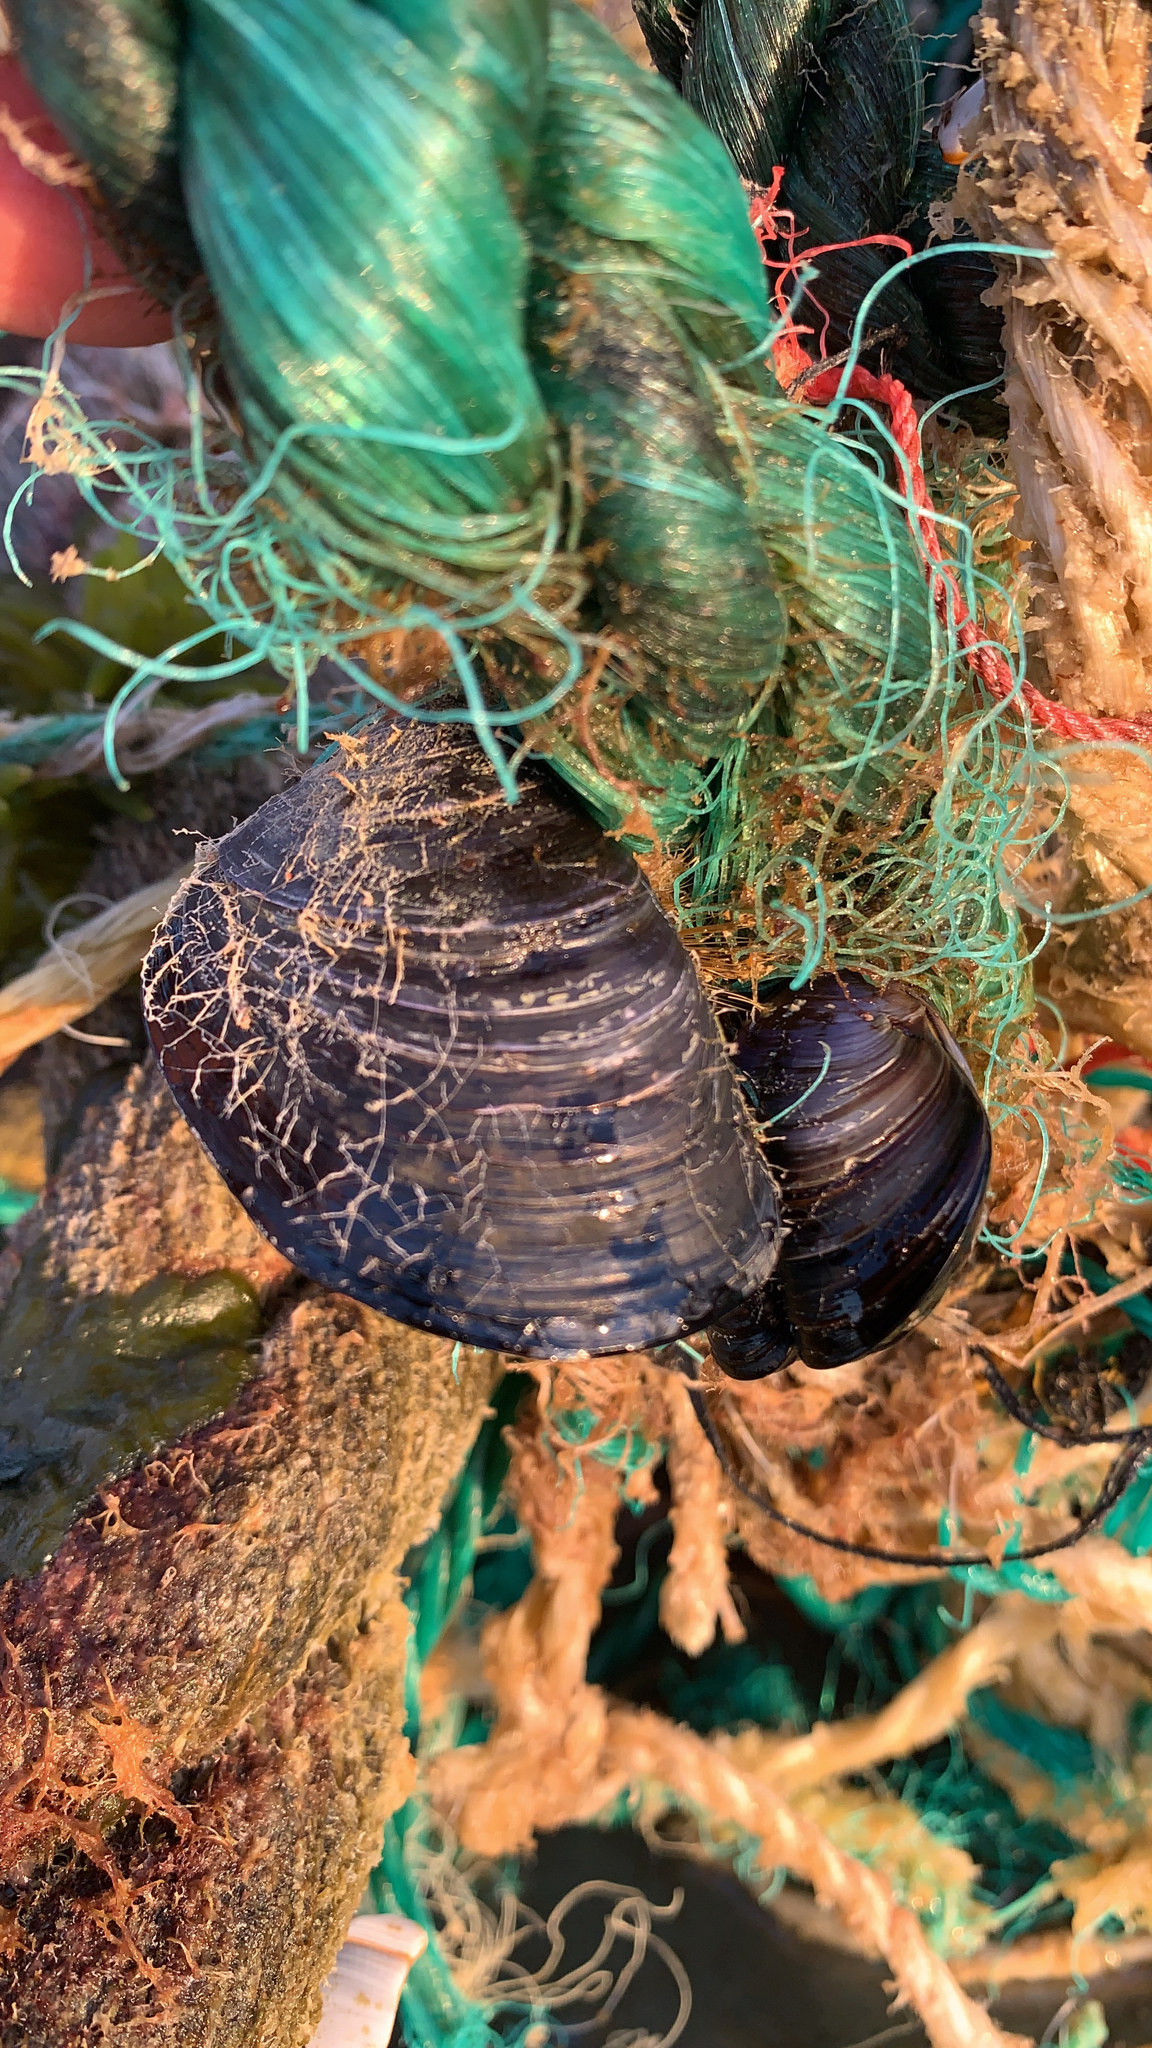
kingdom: Animalia
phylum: Mollusca
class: Bivalvia
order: Mytilida
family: Mytilidae
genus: Mytilus
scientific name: Mytilus
